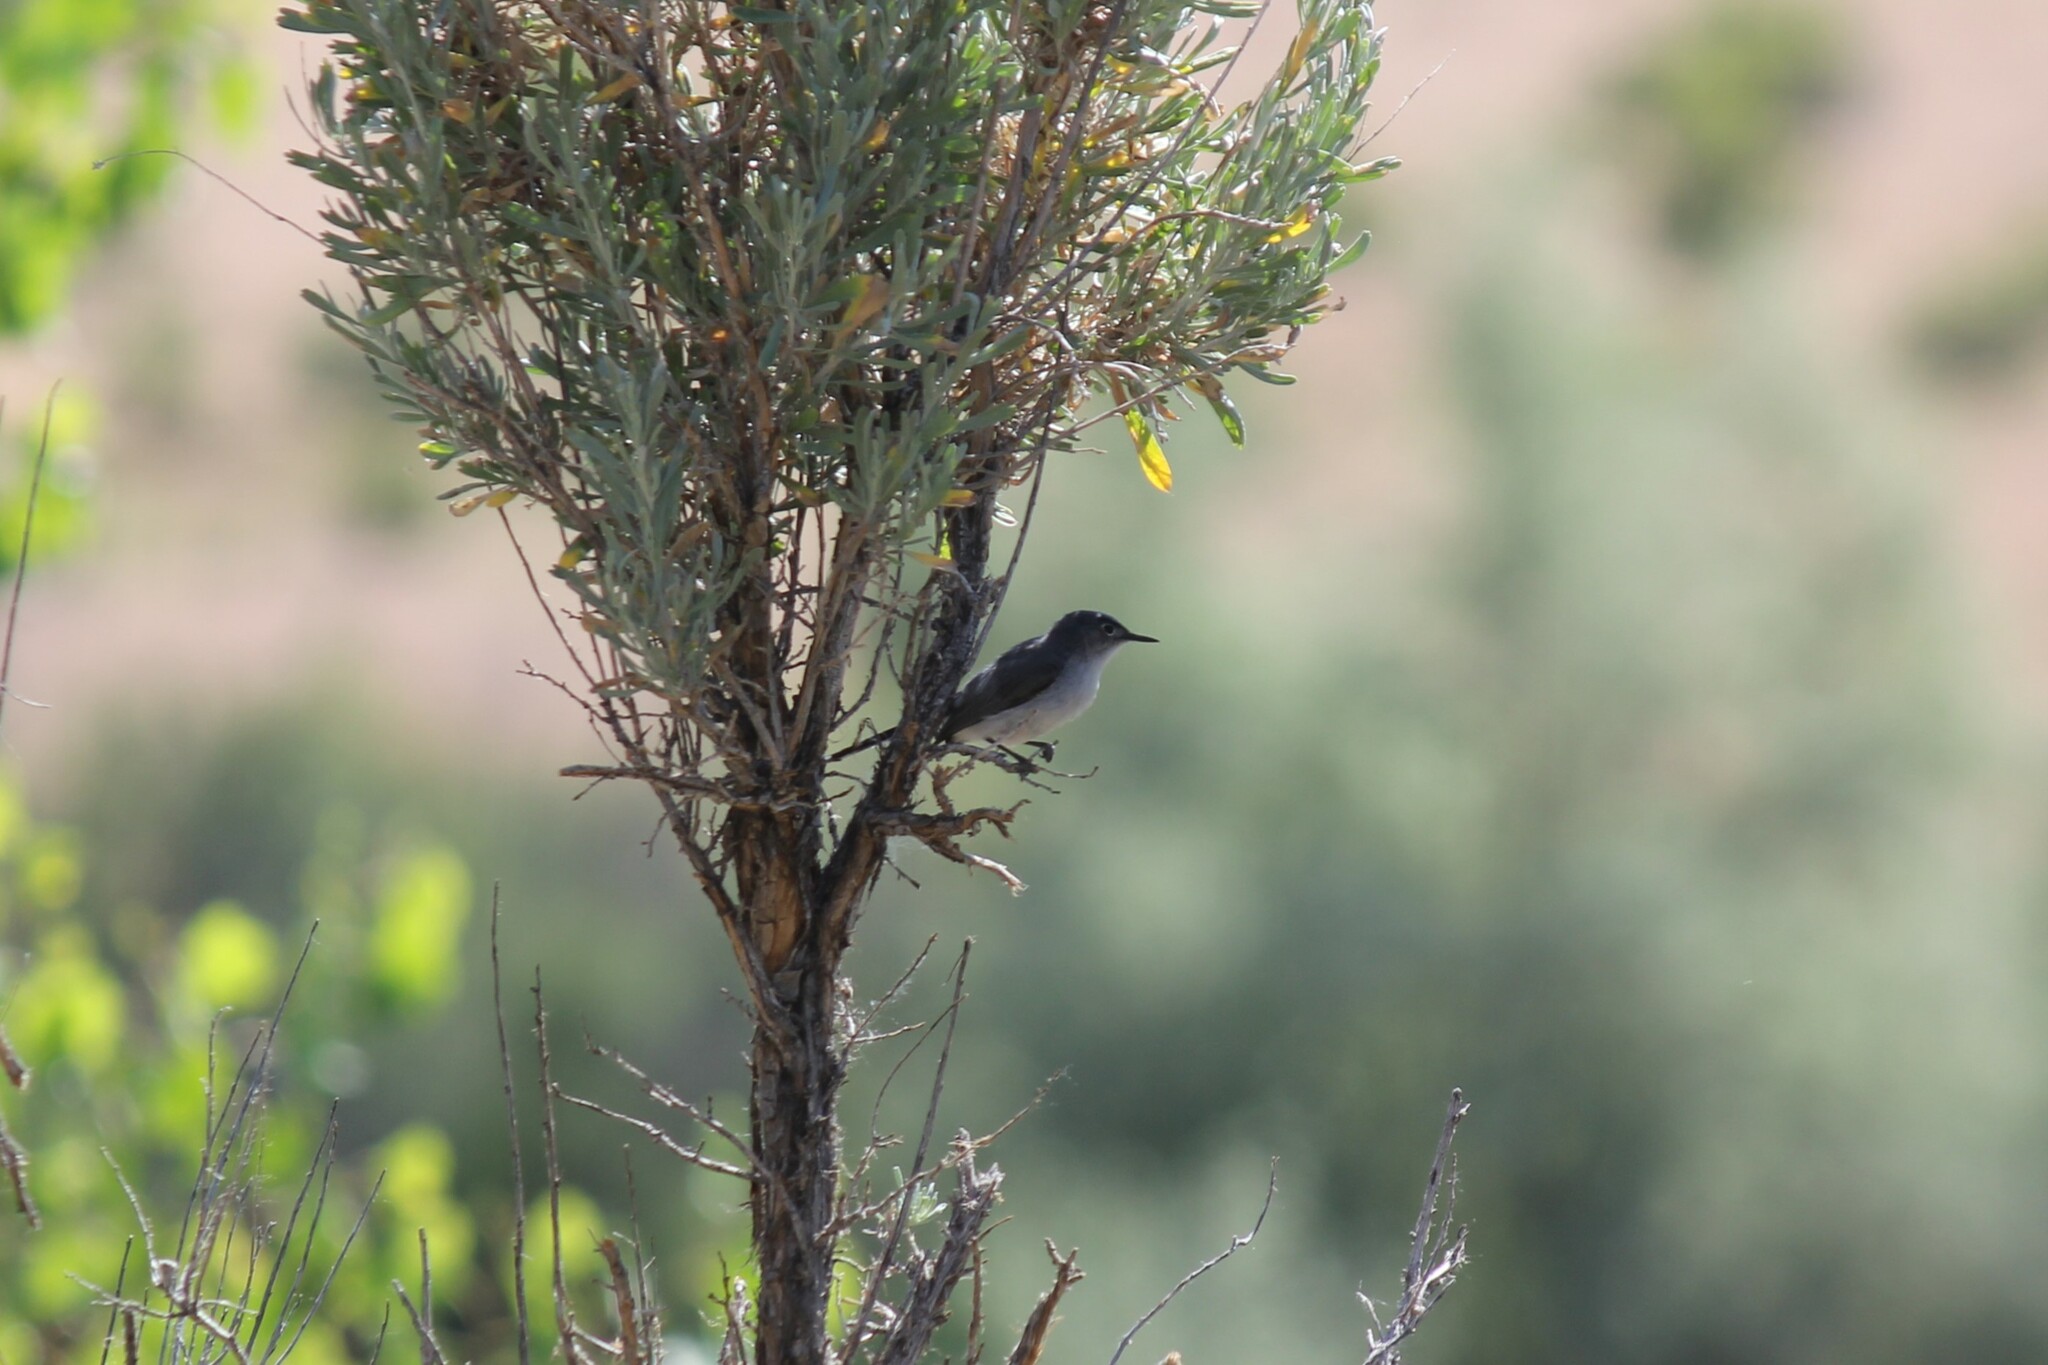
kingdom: Animalia
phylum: Chordata
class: Aves
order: Passeriformes
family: Polioptilidae
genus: Polioptila
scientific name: Polioptila caerulea
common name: Blue-gray gnatcatcher
